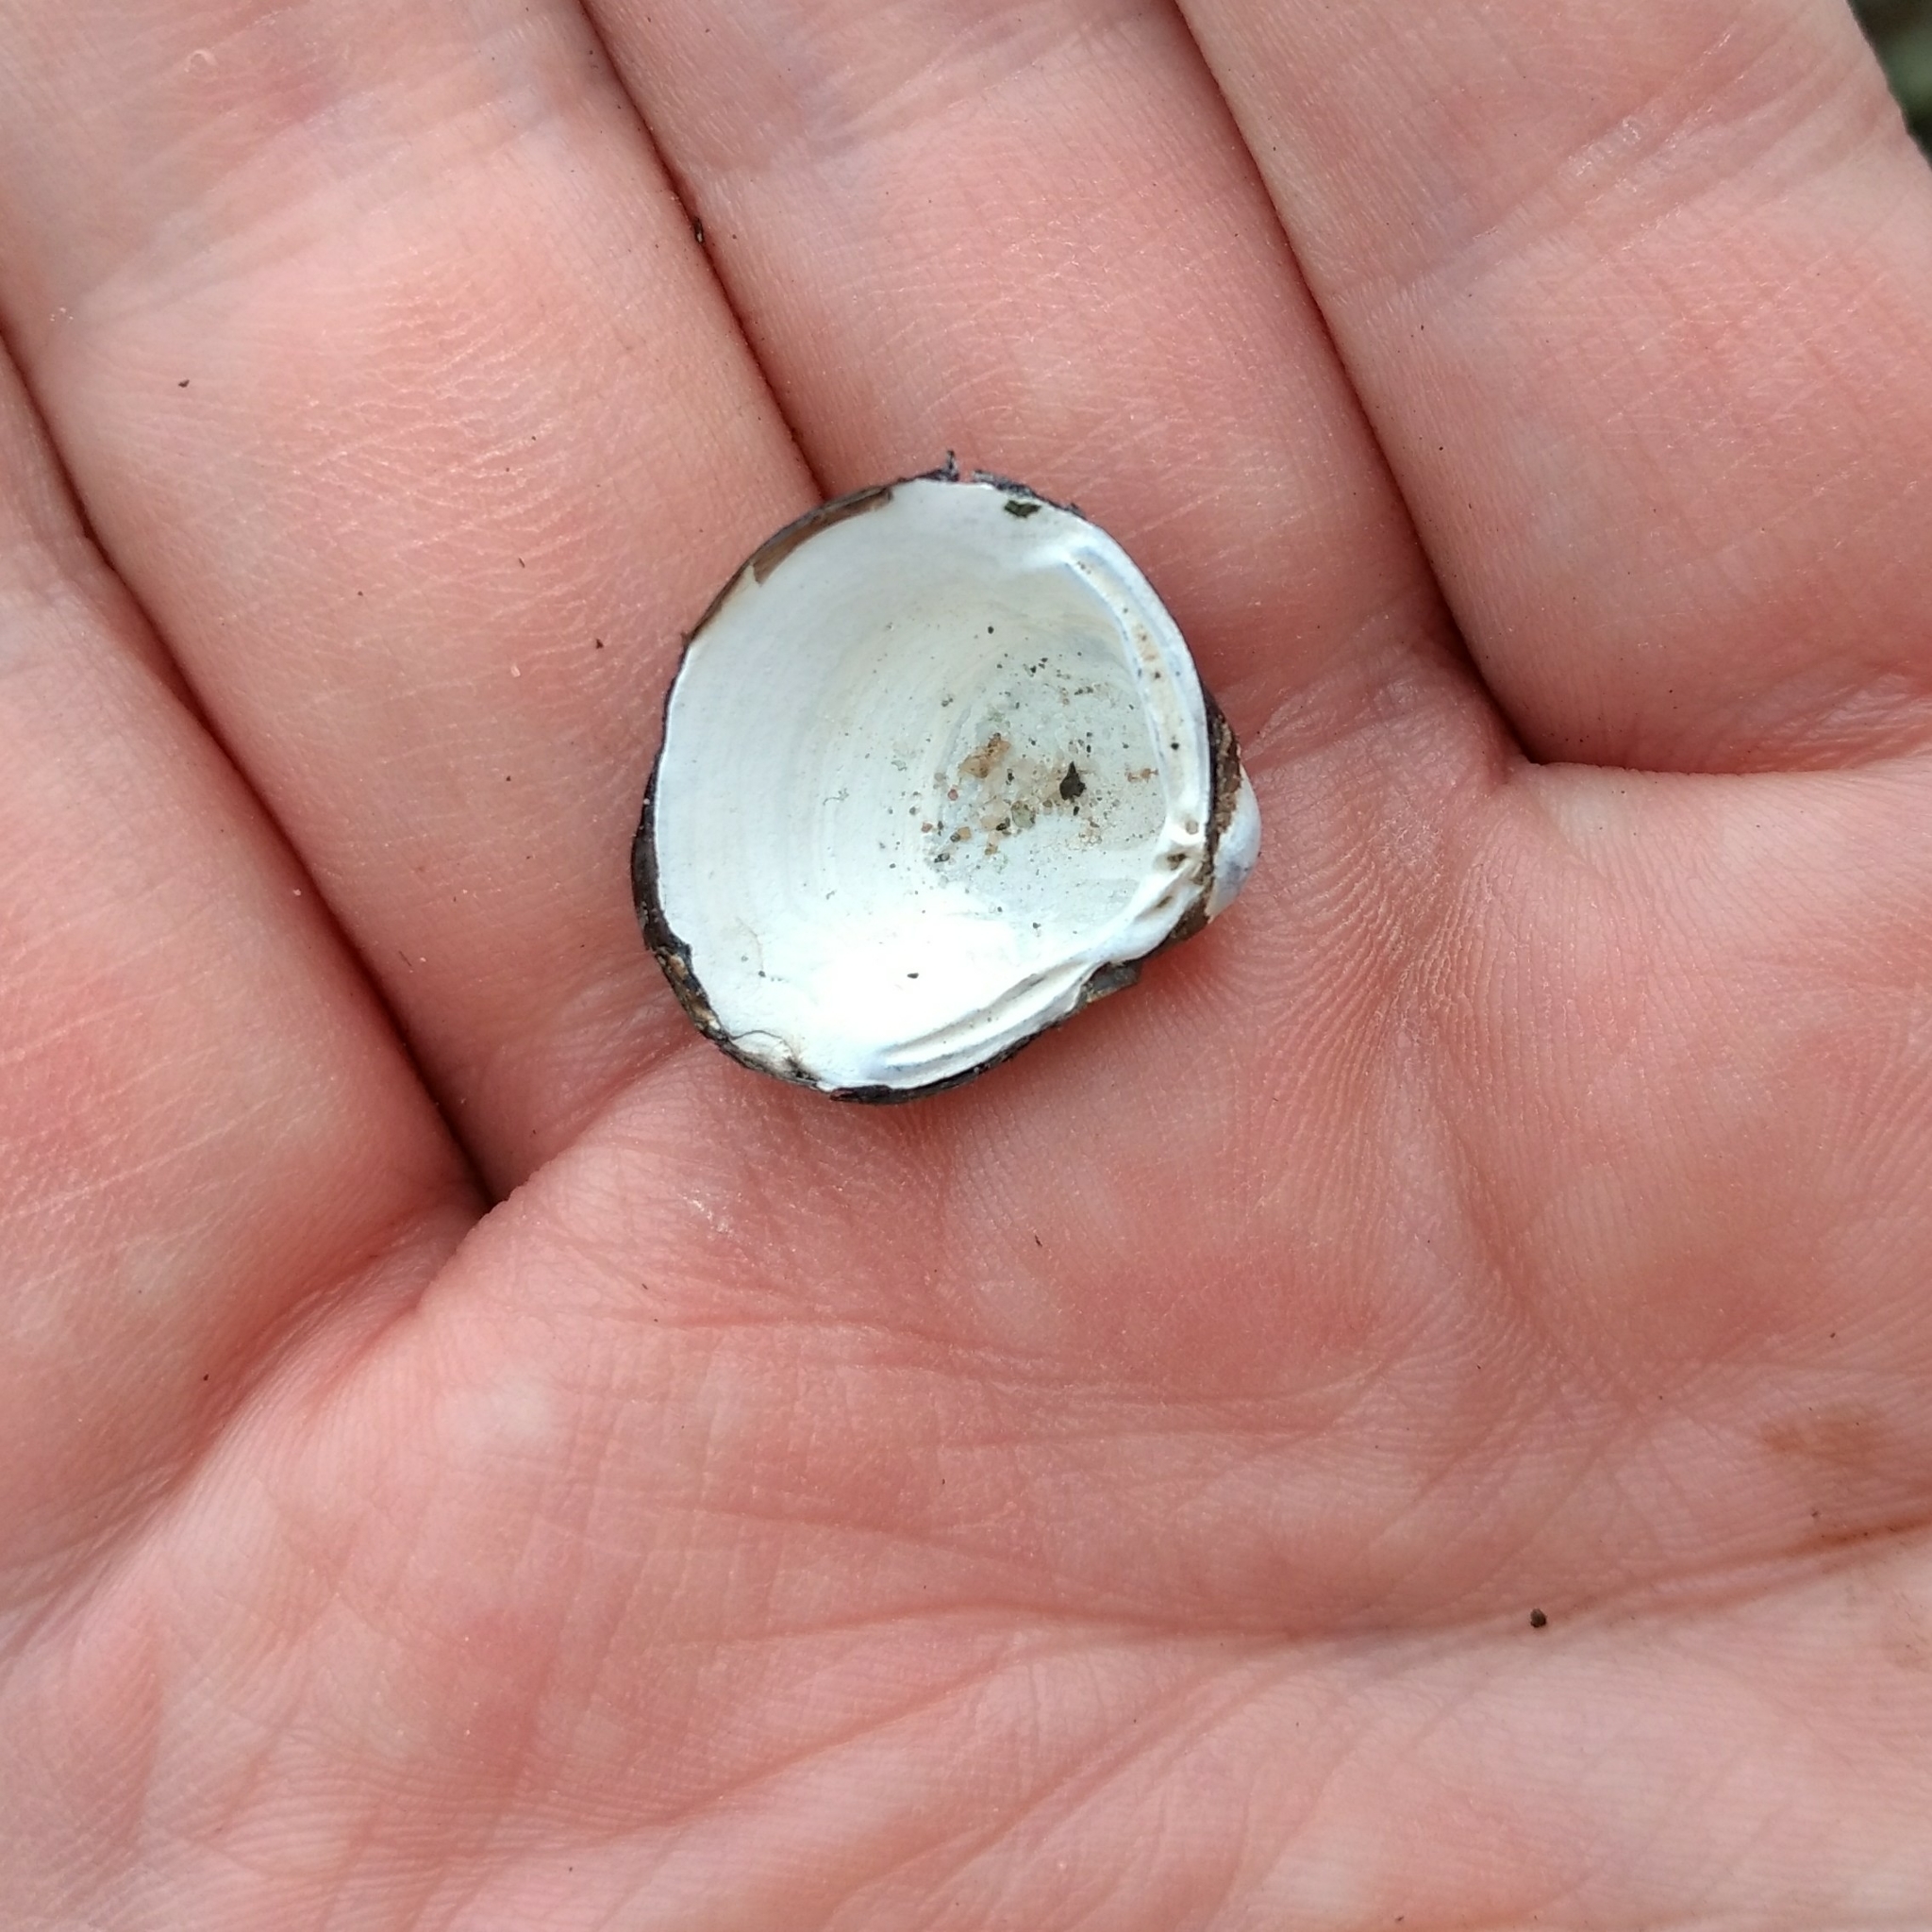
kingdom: Animalia
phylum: Mollusca
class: Bivalvia
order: Venerida
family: Cyrenidae
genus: Corbicula
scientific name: Corbicula fluminea
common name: Asian clam
